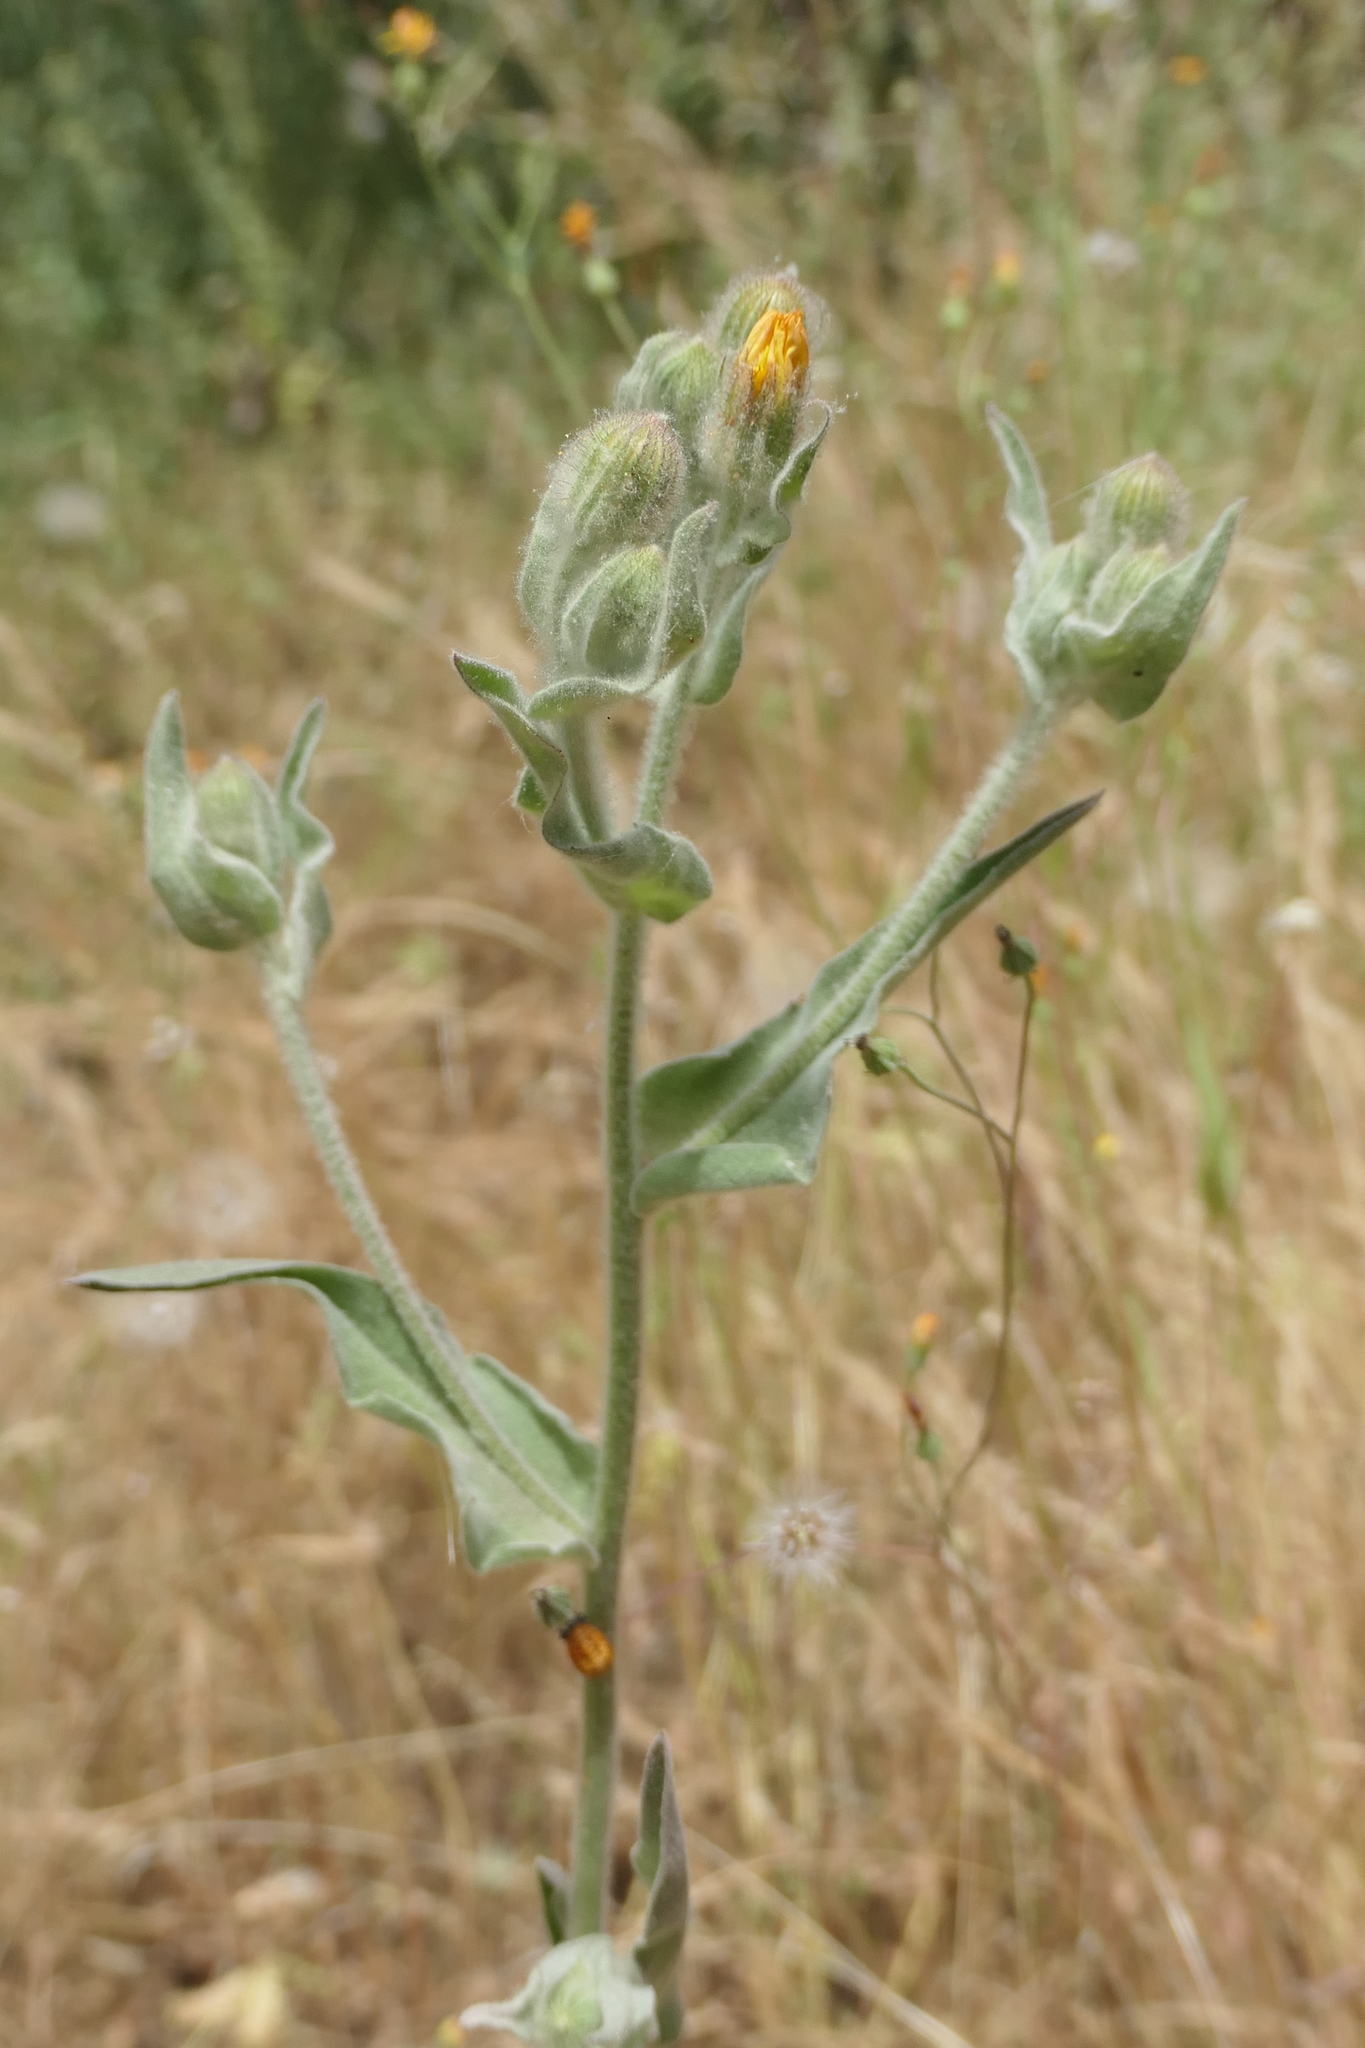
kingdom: Plantae
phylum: Tracheophyta
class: Magnoliopsida
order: Asterales
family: Asteraceae
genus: Andryala
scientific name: Andryala ragusina
